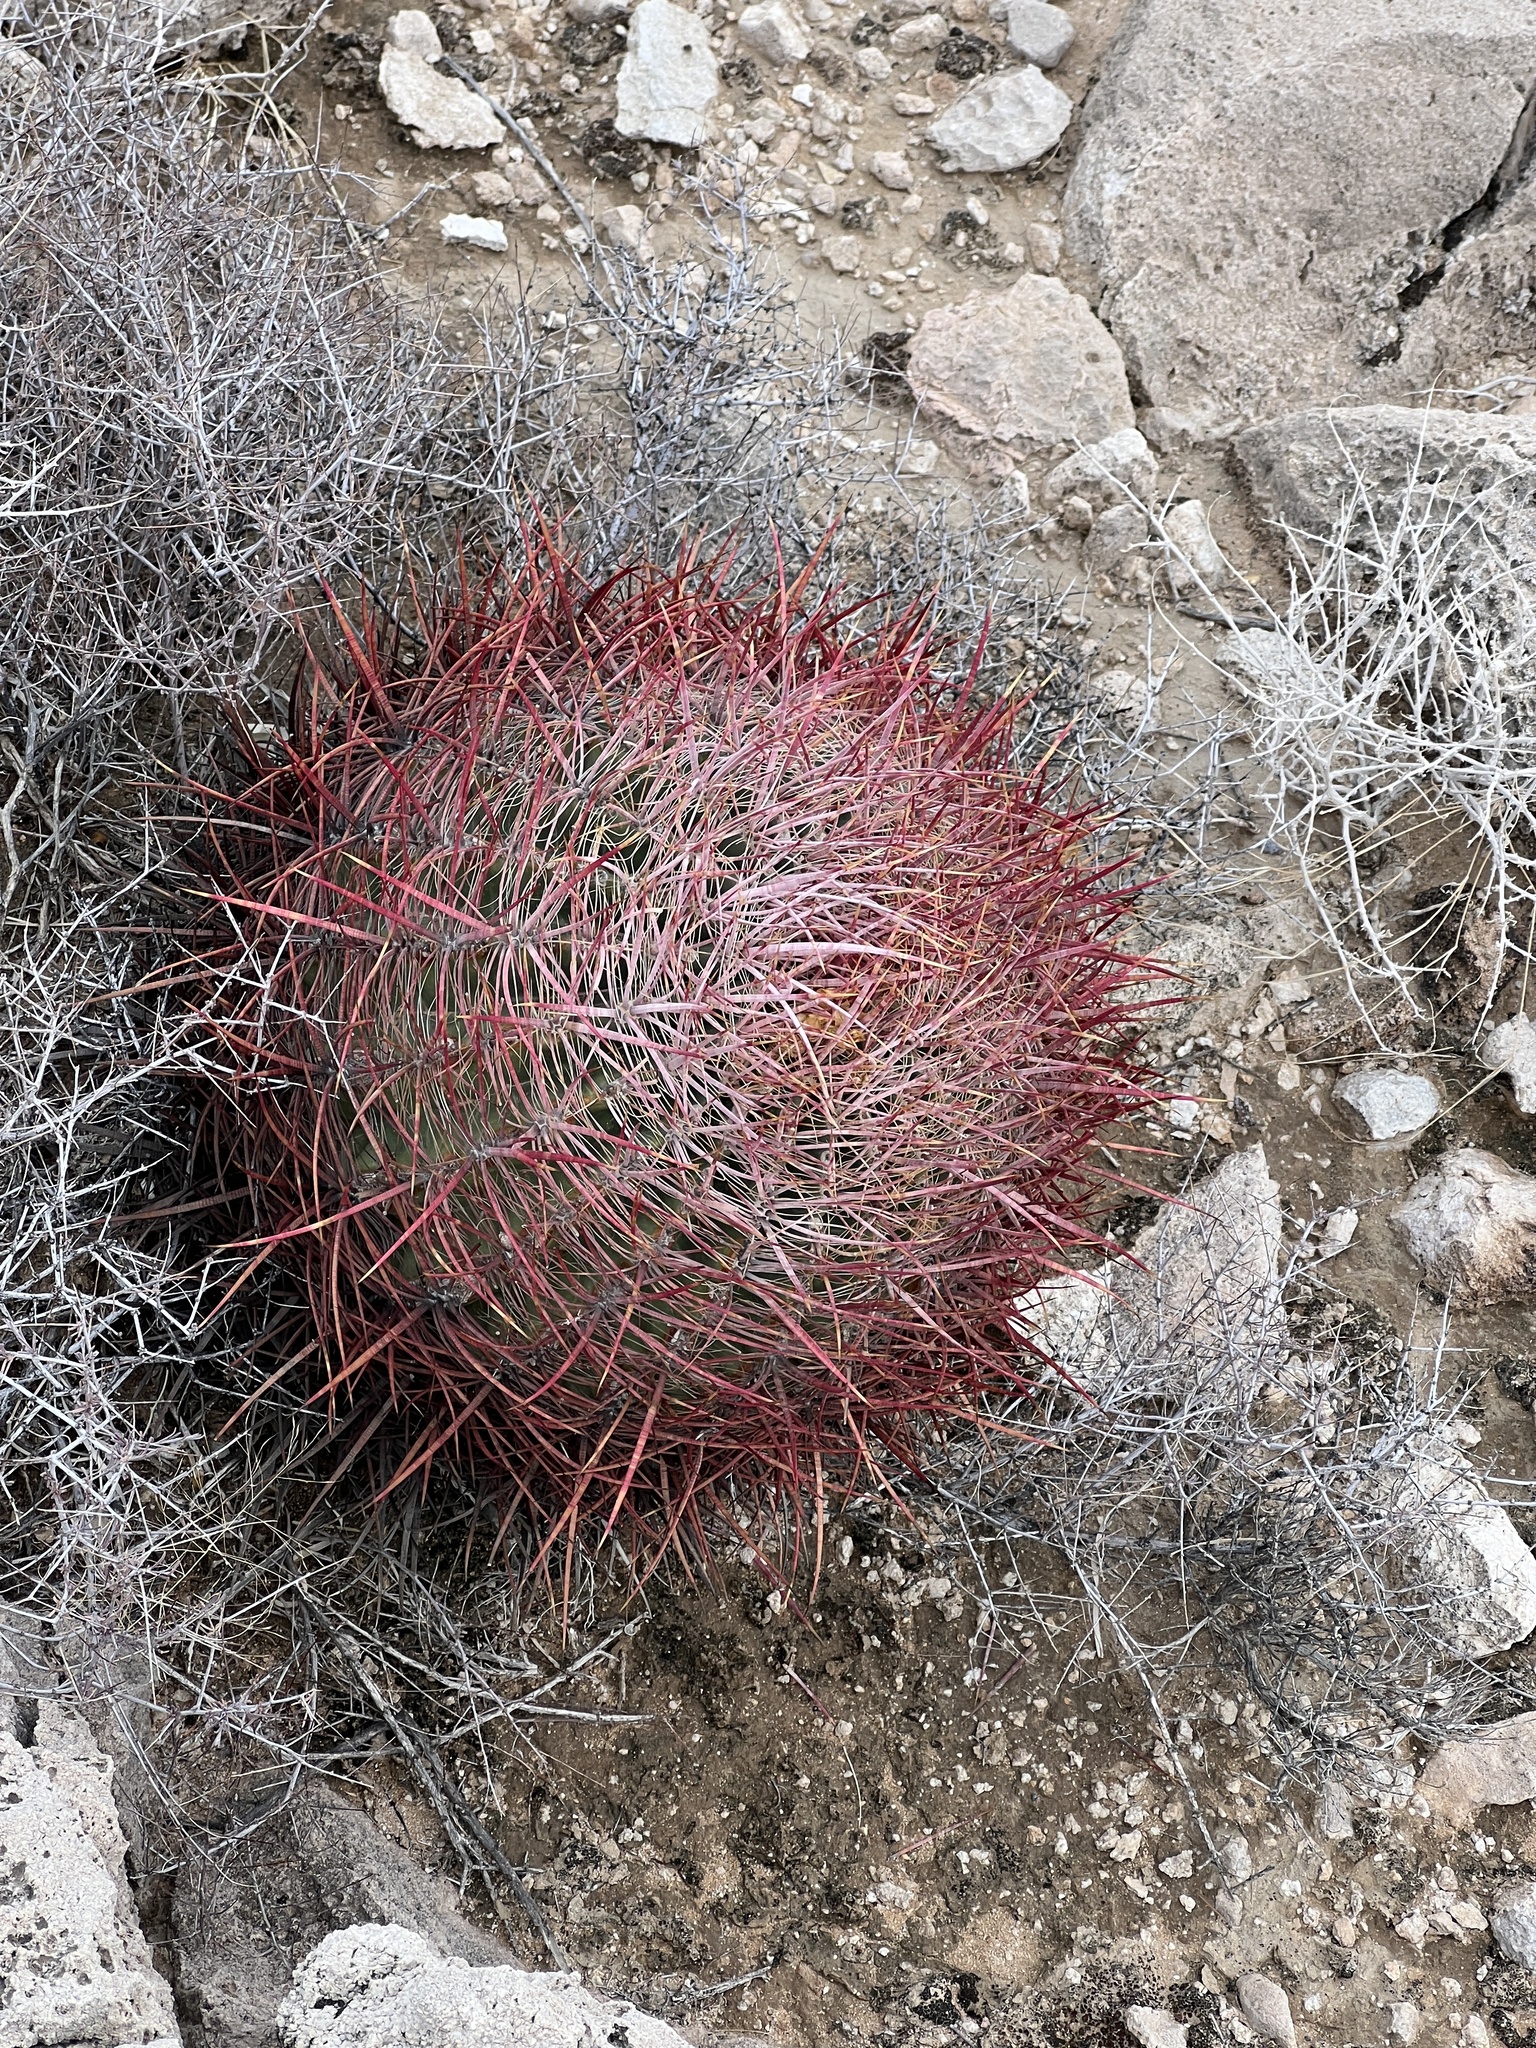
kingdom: Plantae
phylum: Tracheophyta
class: Magnoliopsida
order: Caryophyllales
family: Cactaceae
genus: Ferocactus
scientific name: Ferocactus cylindraceus
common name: California barrel cactus
